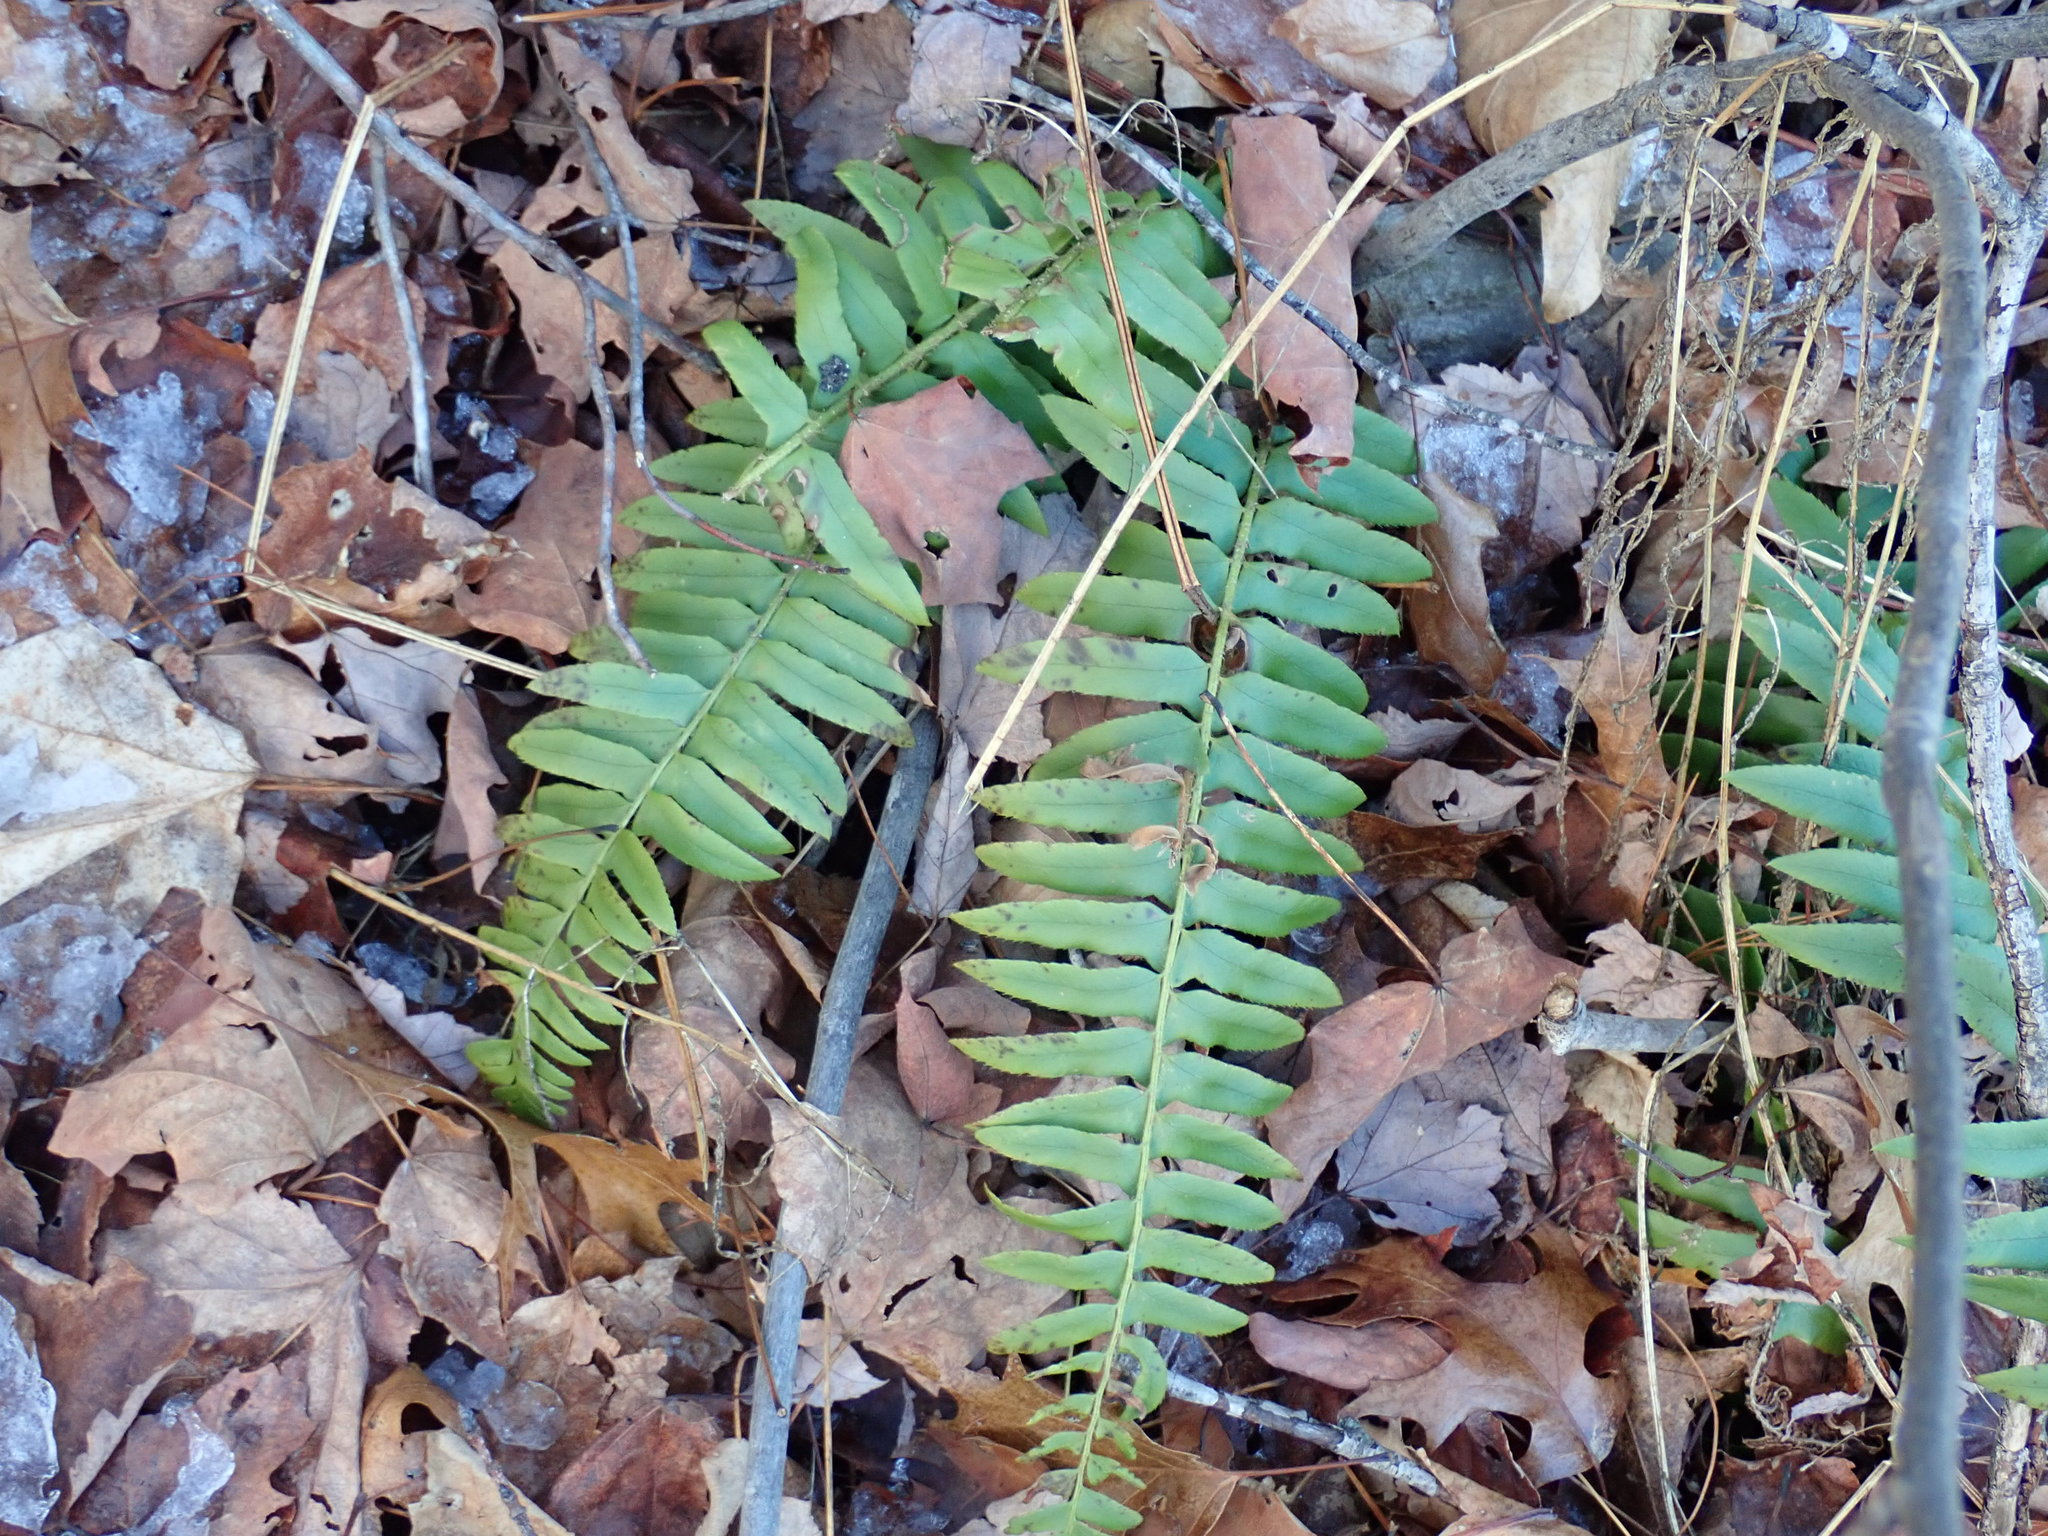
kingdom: Plantae
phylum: Tracheophyta
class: Polypodiopsida
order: Polypodiales
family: Dryopteridaceae
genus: Polystichum
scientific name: Polystichum acrostichoides
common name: Christmas fern
